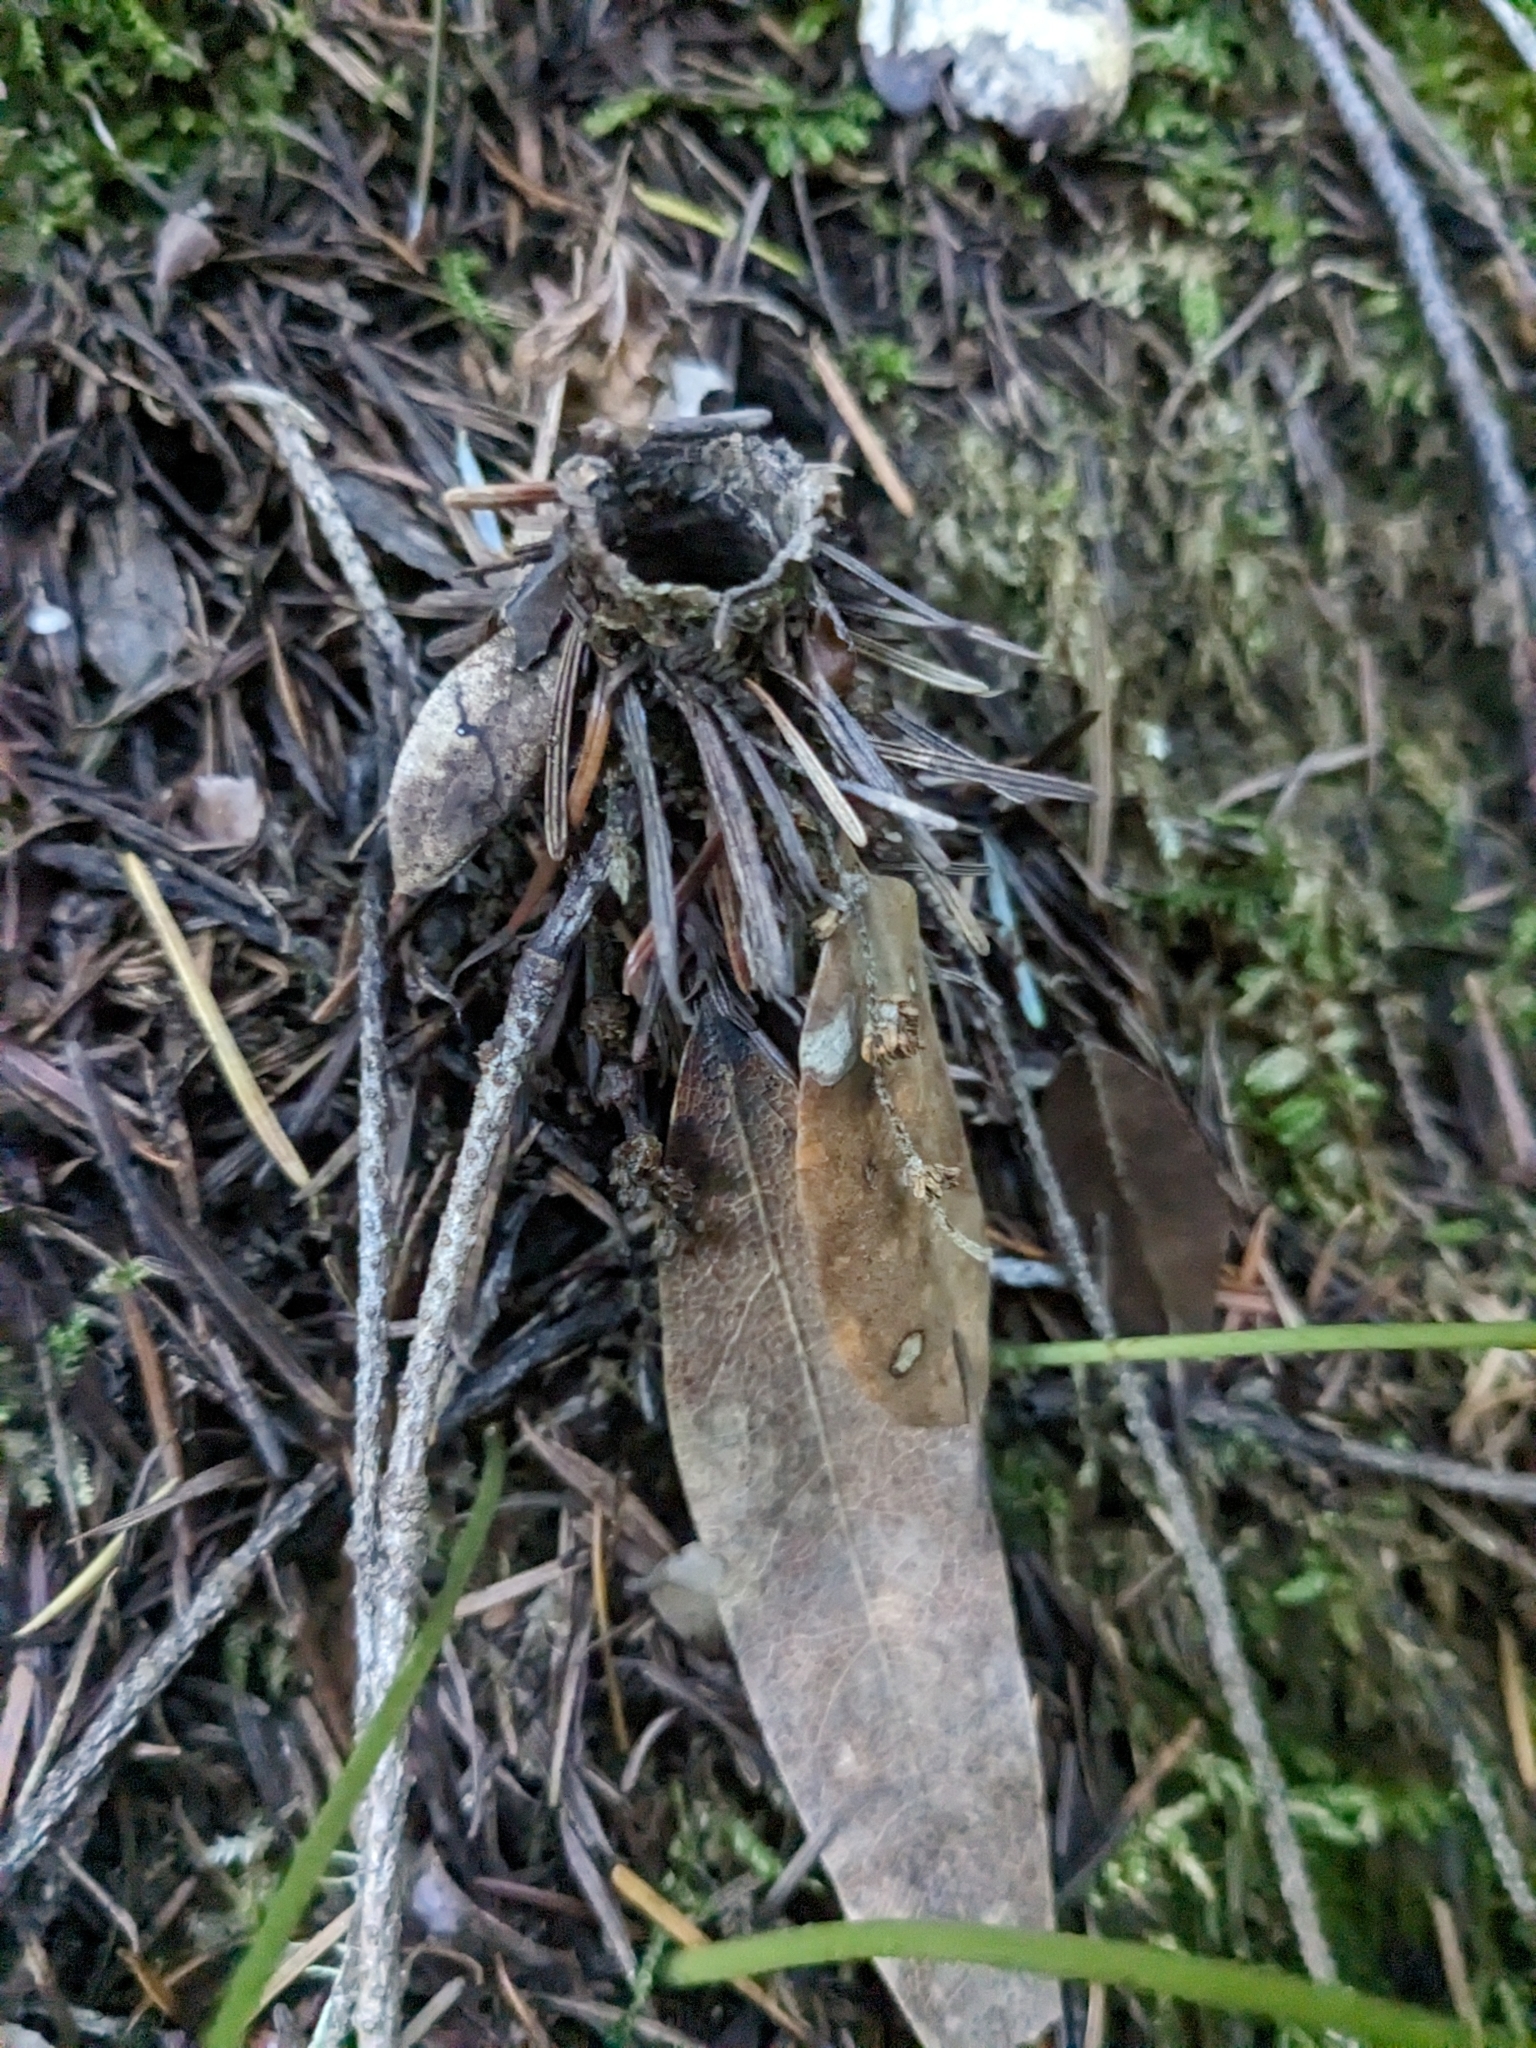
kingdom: Animalia
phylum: Arthropoda
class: Arachnida
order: Araneae
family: Antrodiaetidae
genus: Atypoides
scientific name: Atypoides riversi
